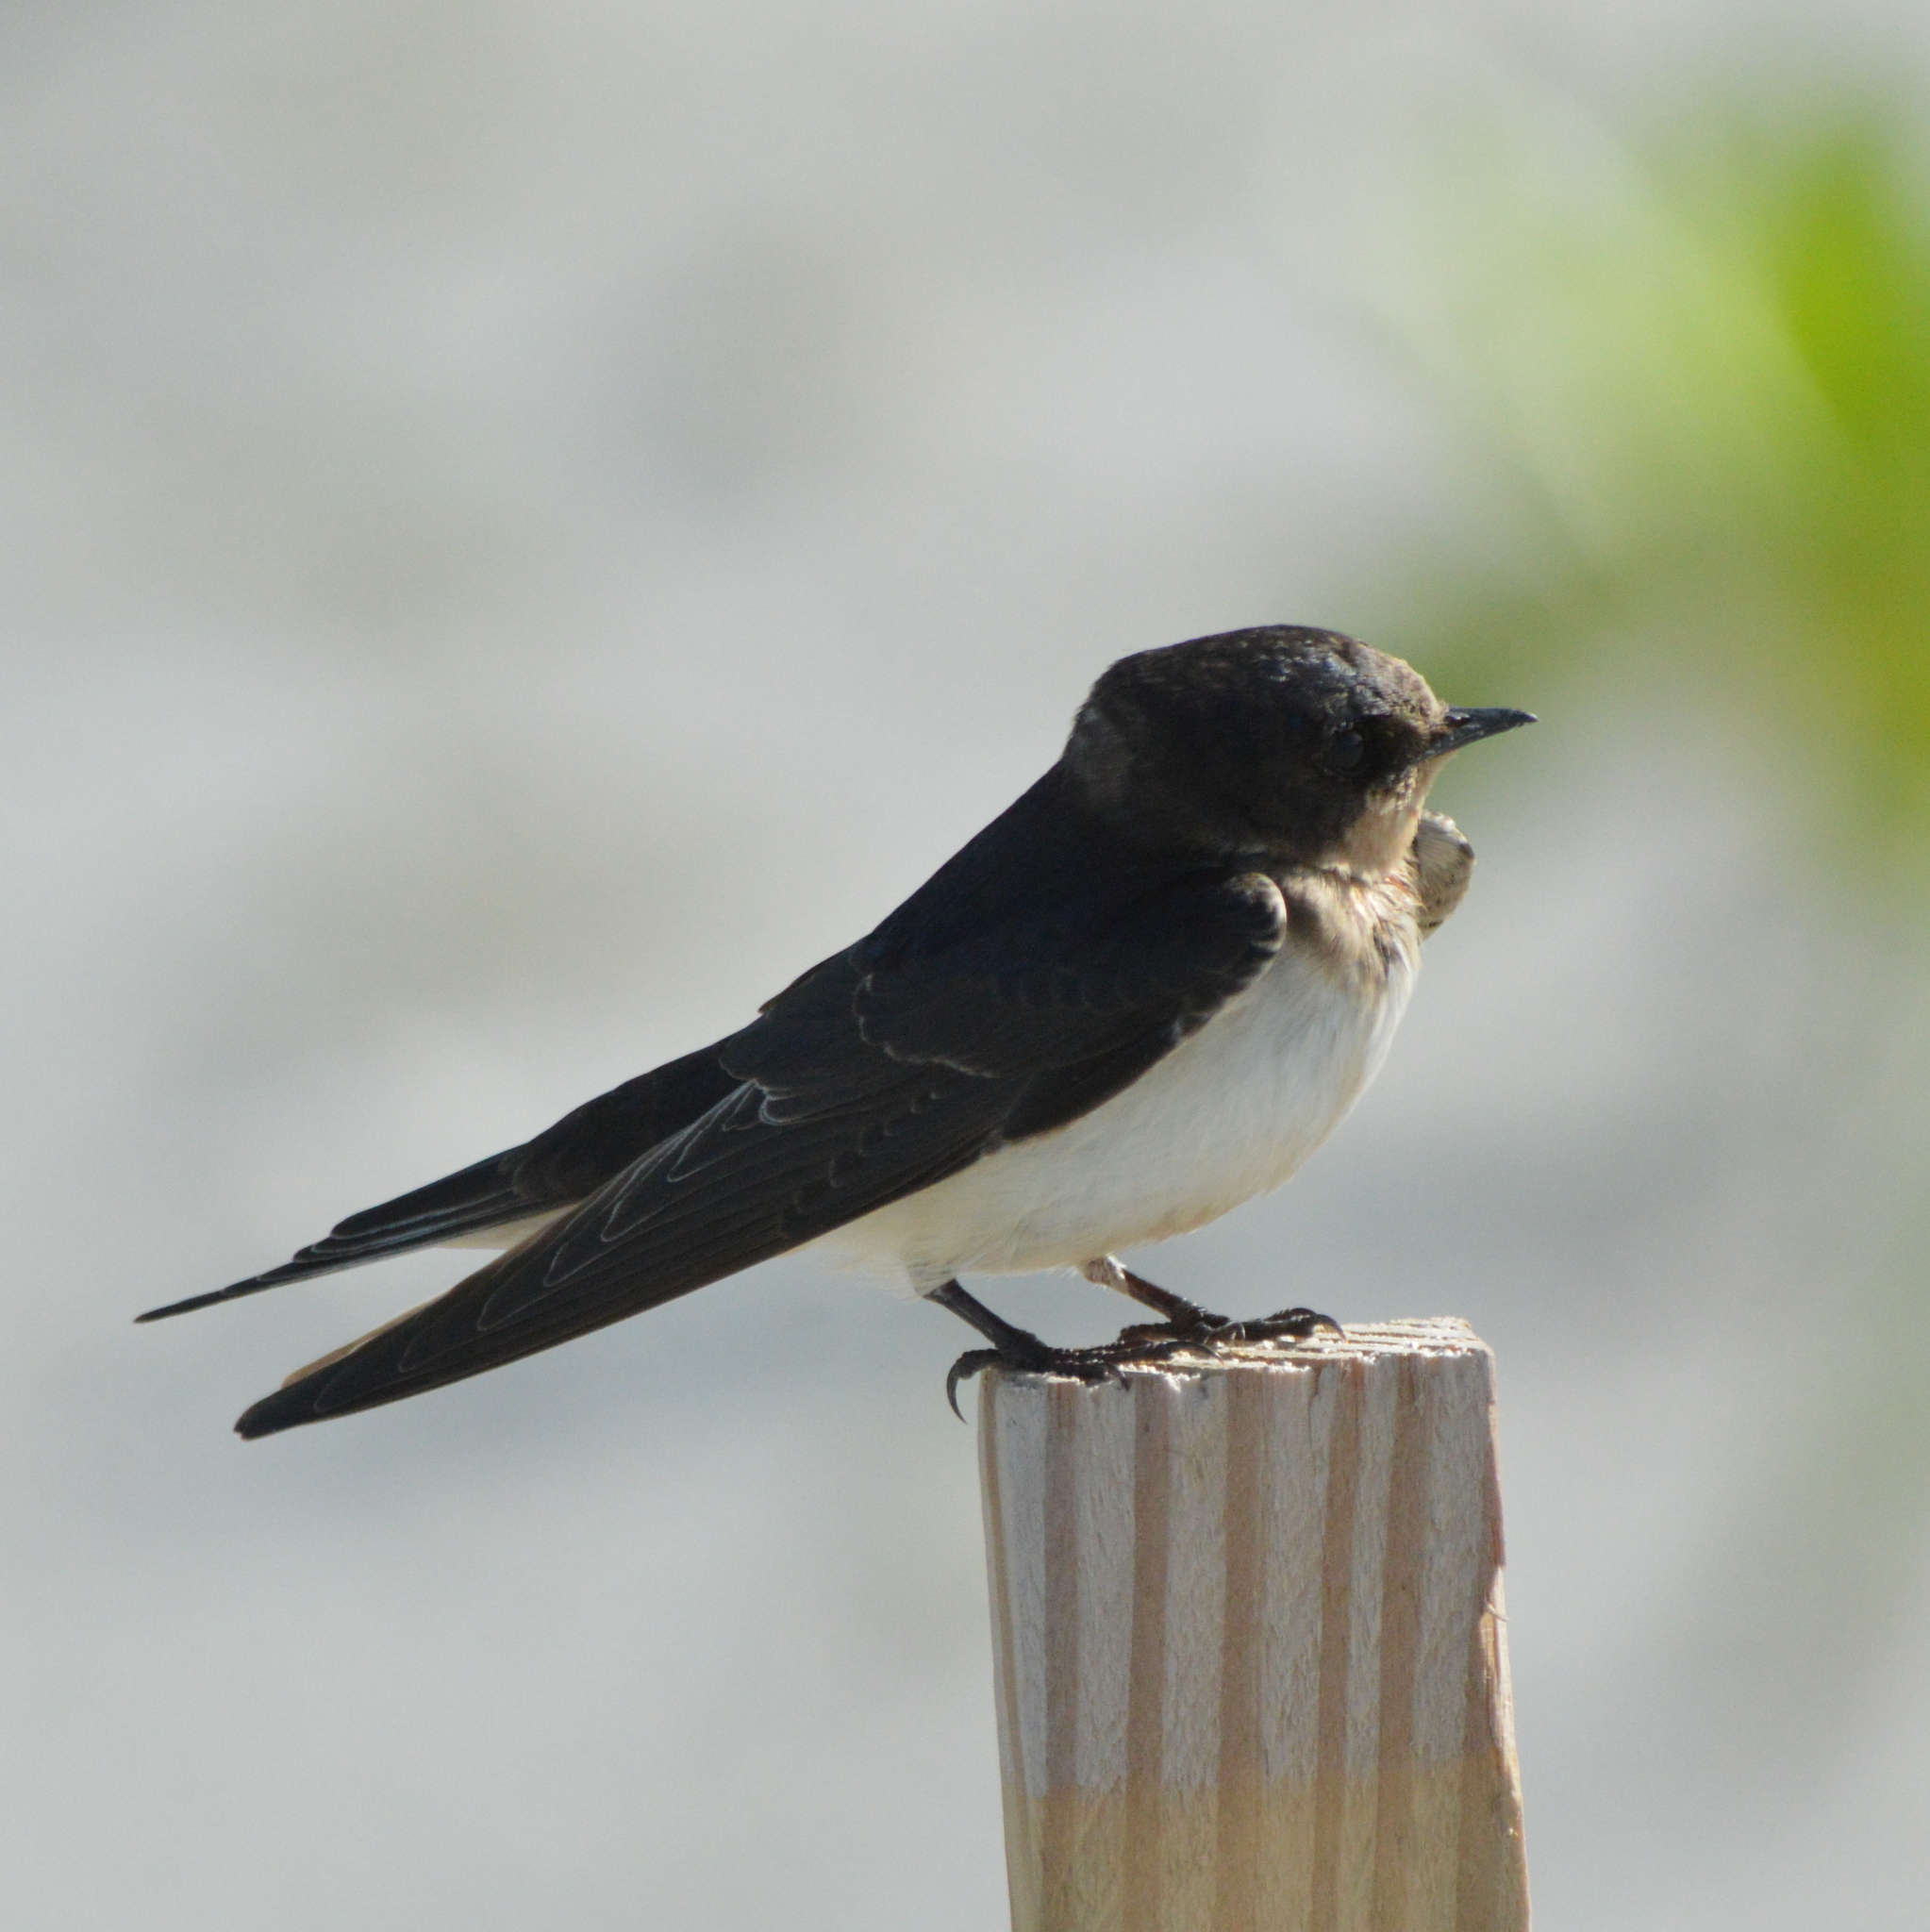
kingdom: Animalia
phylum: Chordata
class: Aves
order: Passeriformes
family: Hirundinidae
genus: Hirundo
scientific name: Hirundo rustica
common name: Barn swallow
